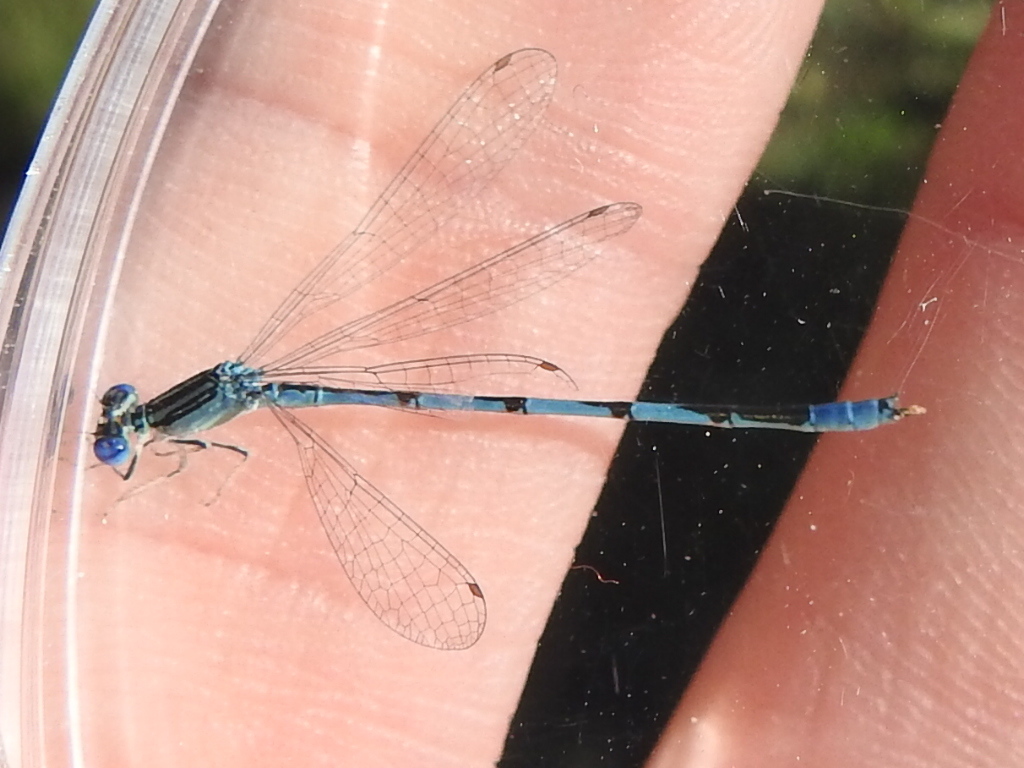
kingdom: Animalia
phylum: Arthropoda
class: Insecta
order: Odonata
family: Coenagrionidae
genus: Enallagma
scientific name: Enallagma basidens
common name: Double-striped bluet
